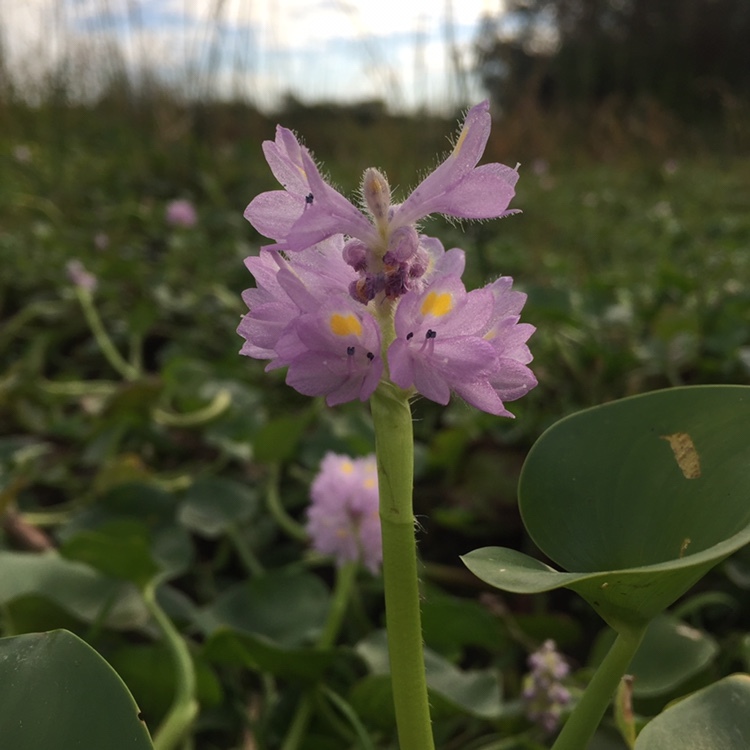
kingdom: Plantae
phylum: Tracheophyta
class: Liliopsida
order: Commelinales
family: Pontederiaceae
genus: Pontederia
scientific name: Pontederia rotundifolia
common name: Tropical pickerel-weed
